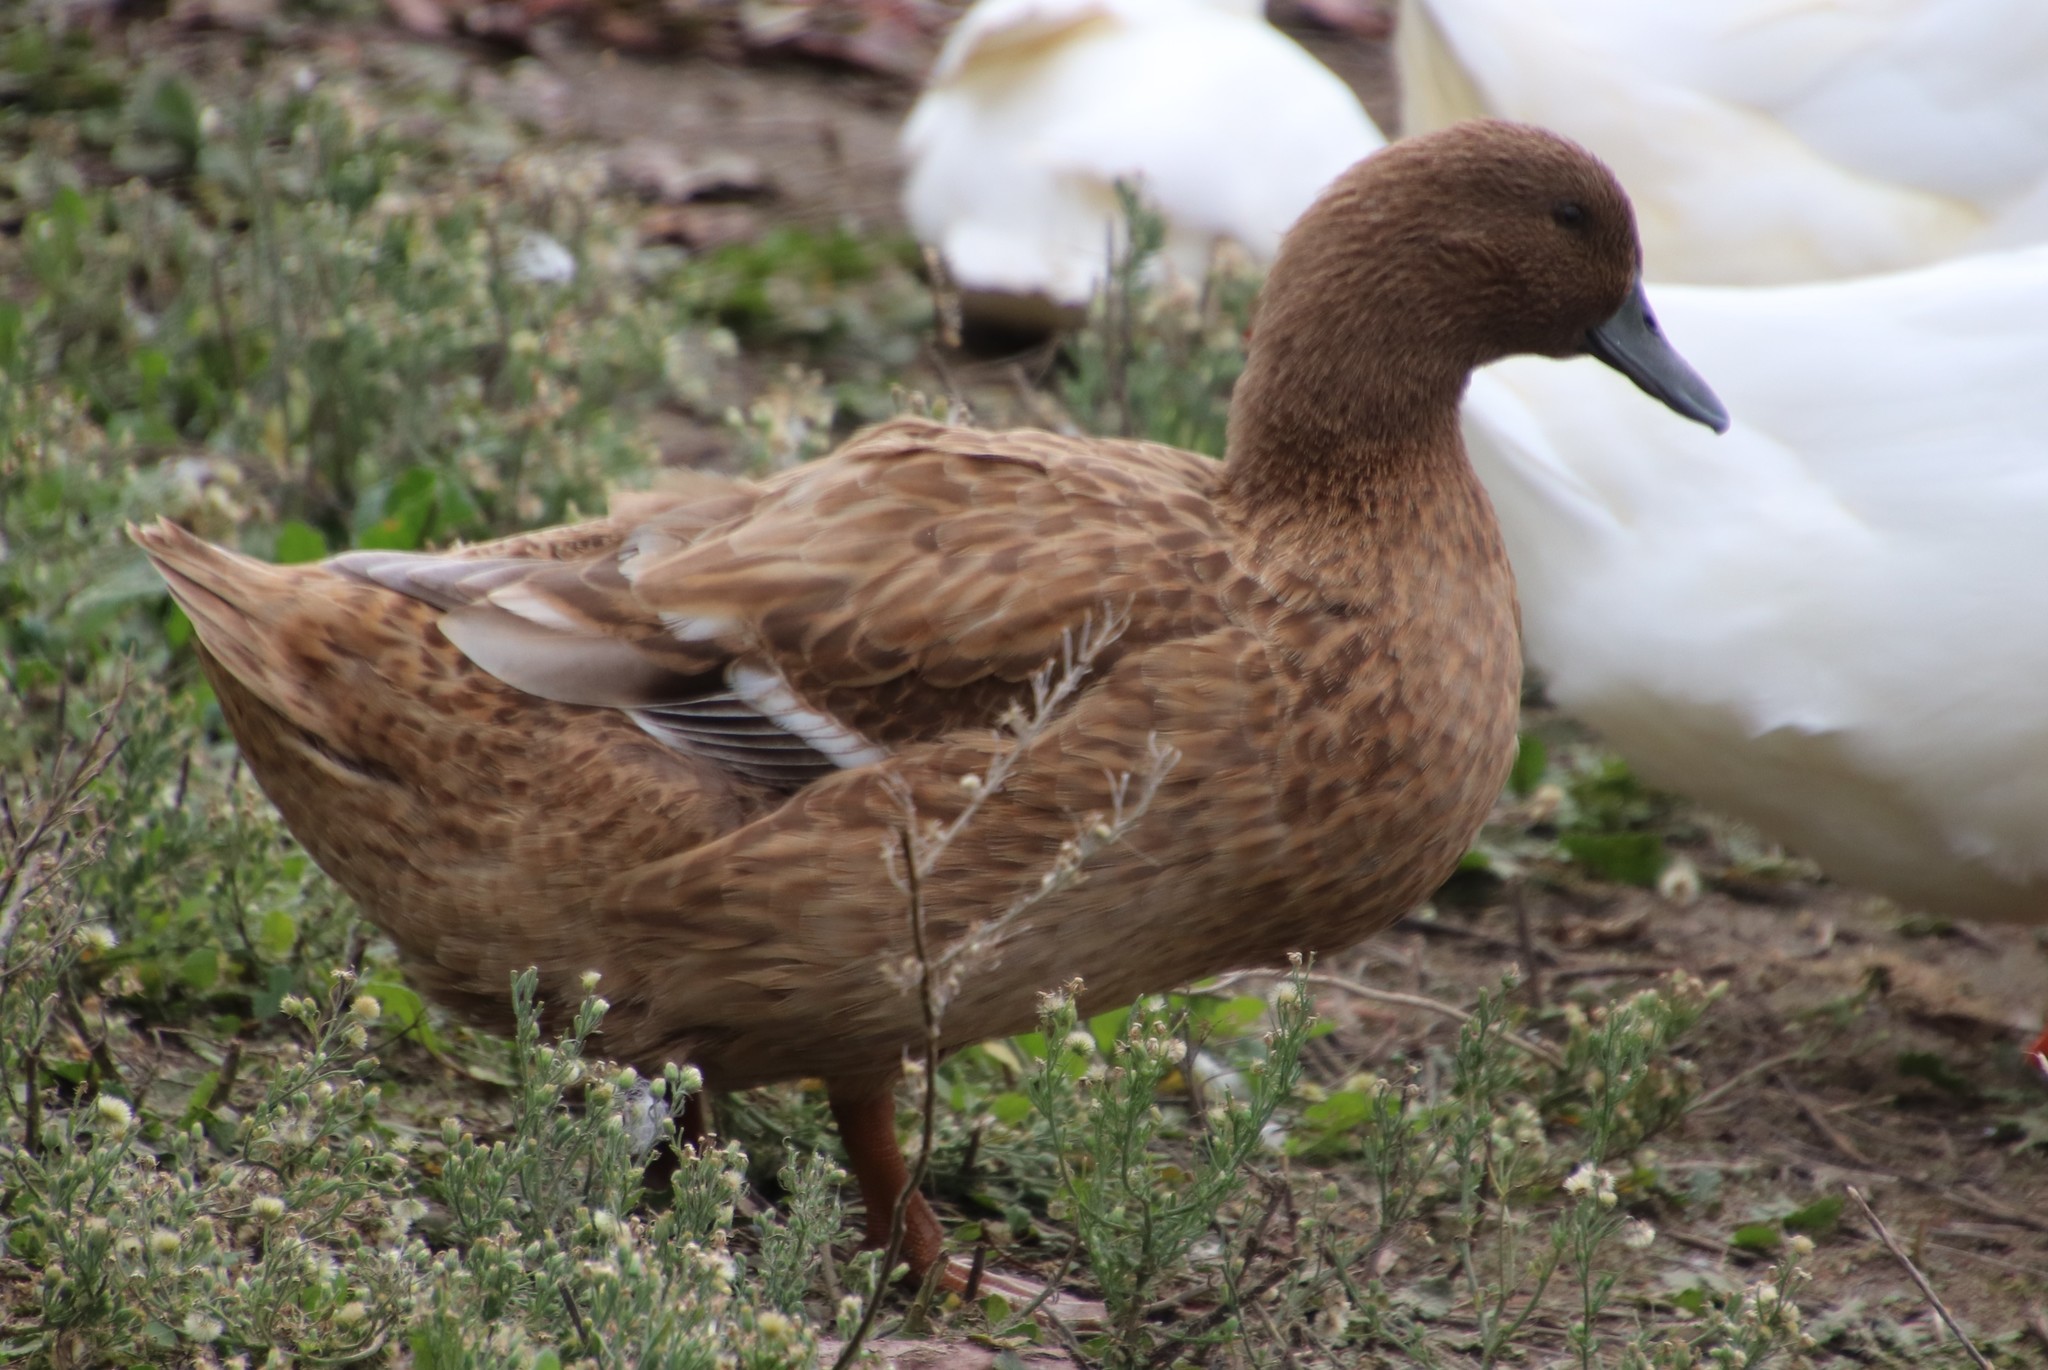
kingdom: Animalia
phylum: Chordata
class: Aves
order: Anseriformes
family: Anatidae
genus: Anas
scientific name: Anas platyrhynchos
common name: Mallard
